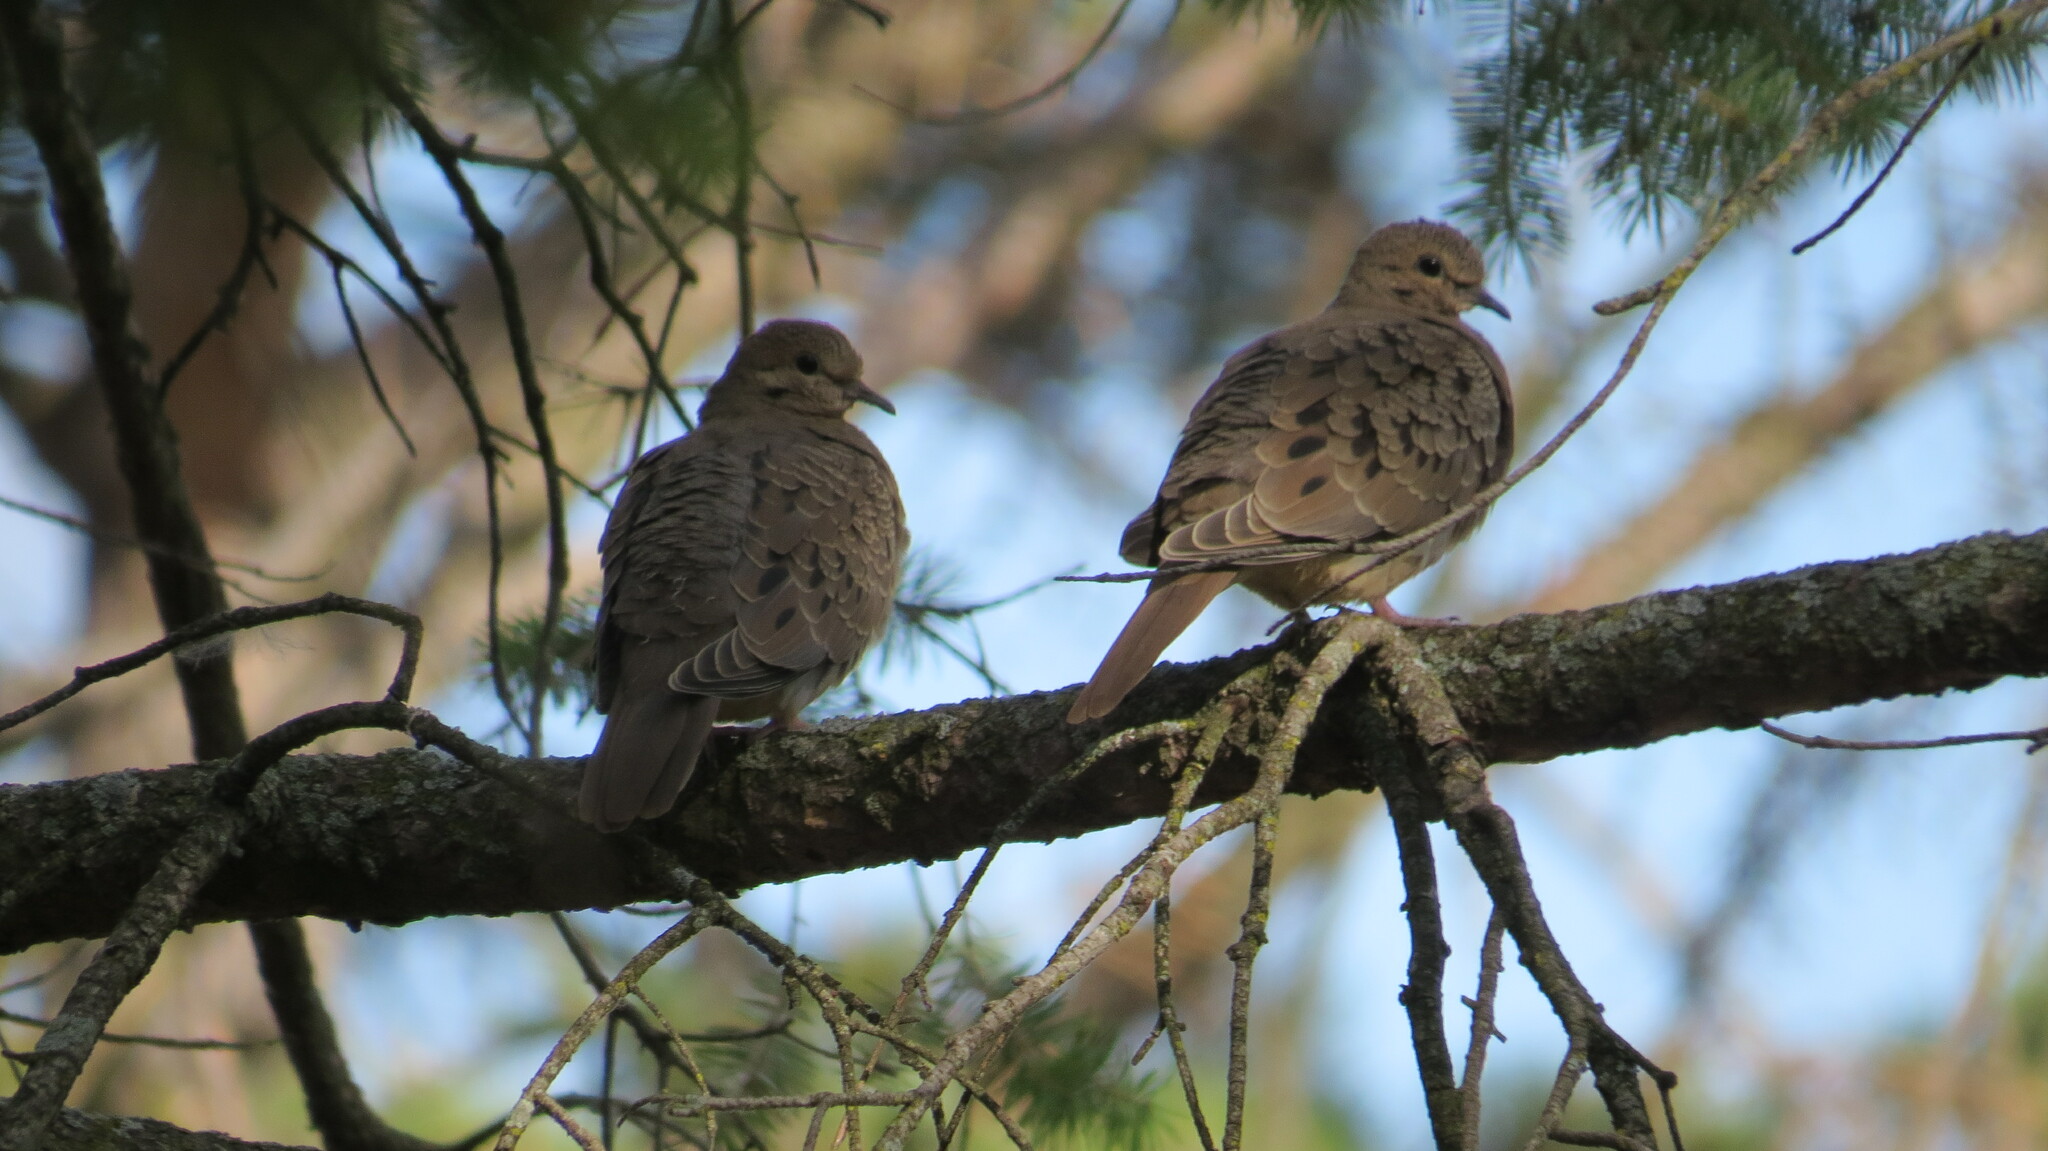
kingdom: Animalia
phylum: Chordata
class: Aves
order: Columbiformes
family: Columbidae
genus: Zenaida
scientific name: Zenaida macroura
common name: Mourning dove
